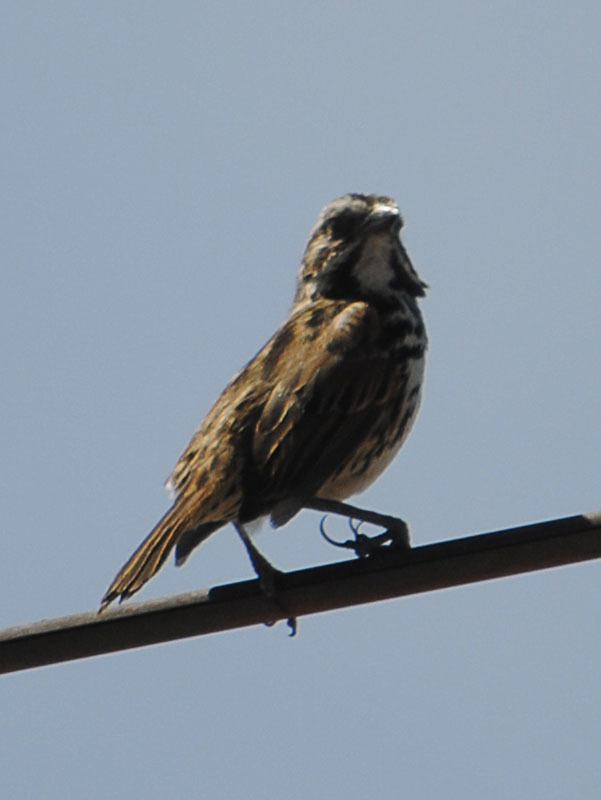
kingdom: Animalia
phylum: Chordata
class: Aves
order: Passeriformes
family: Passerellidae
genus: Melospiza
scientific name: Melospiza melodia
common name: Song sparrow
